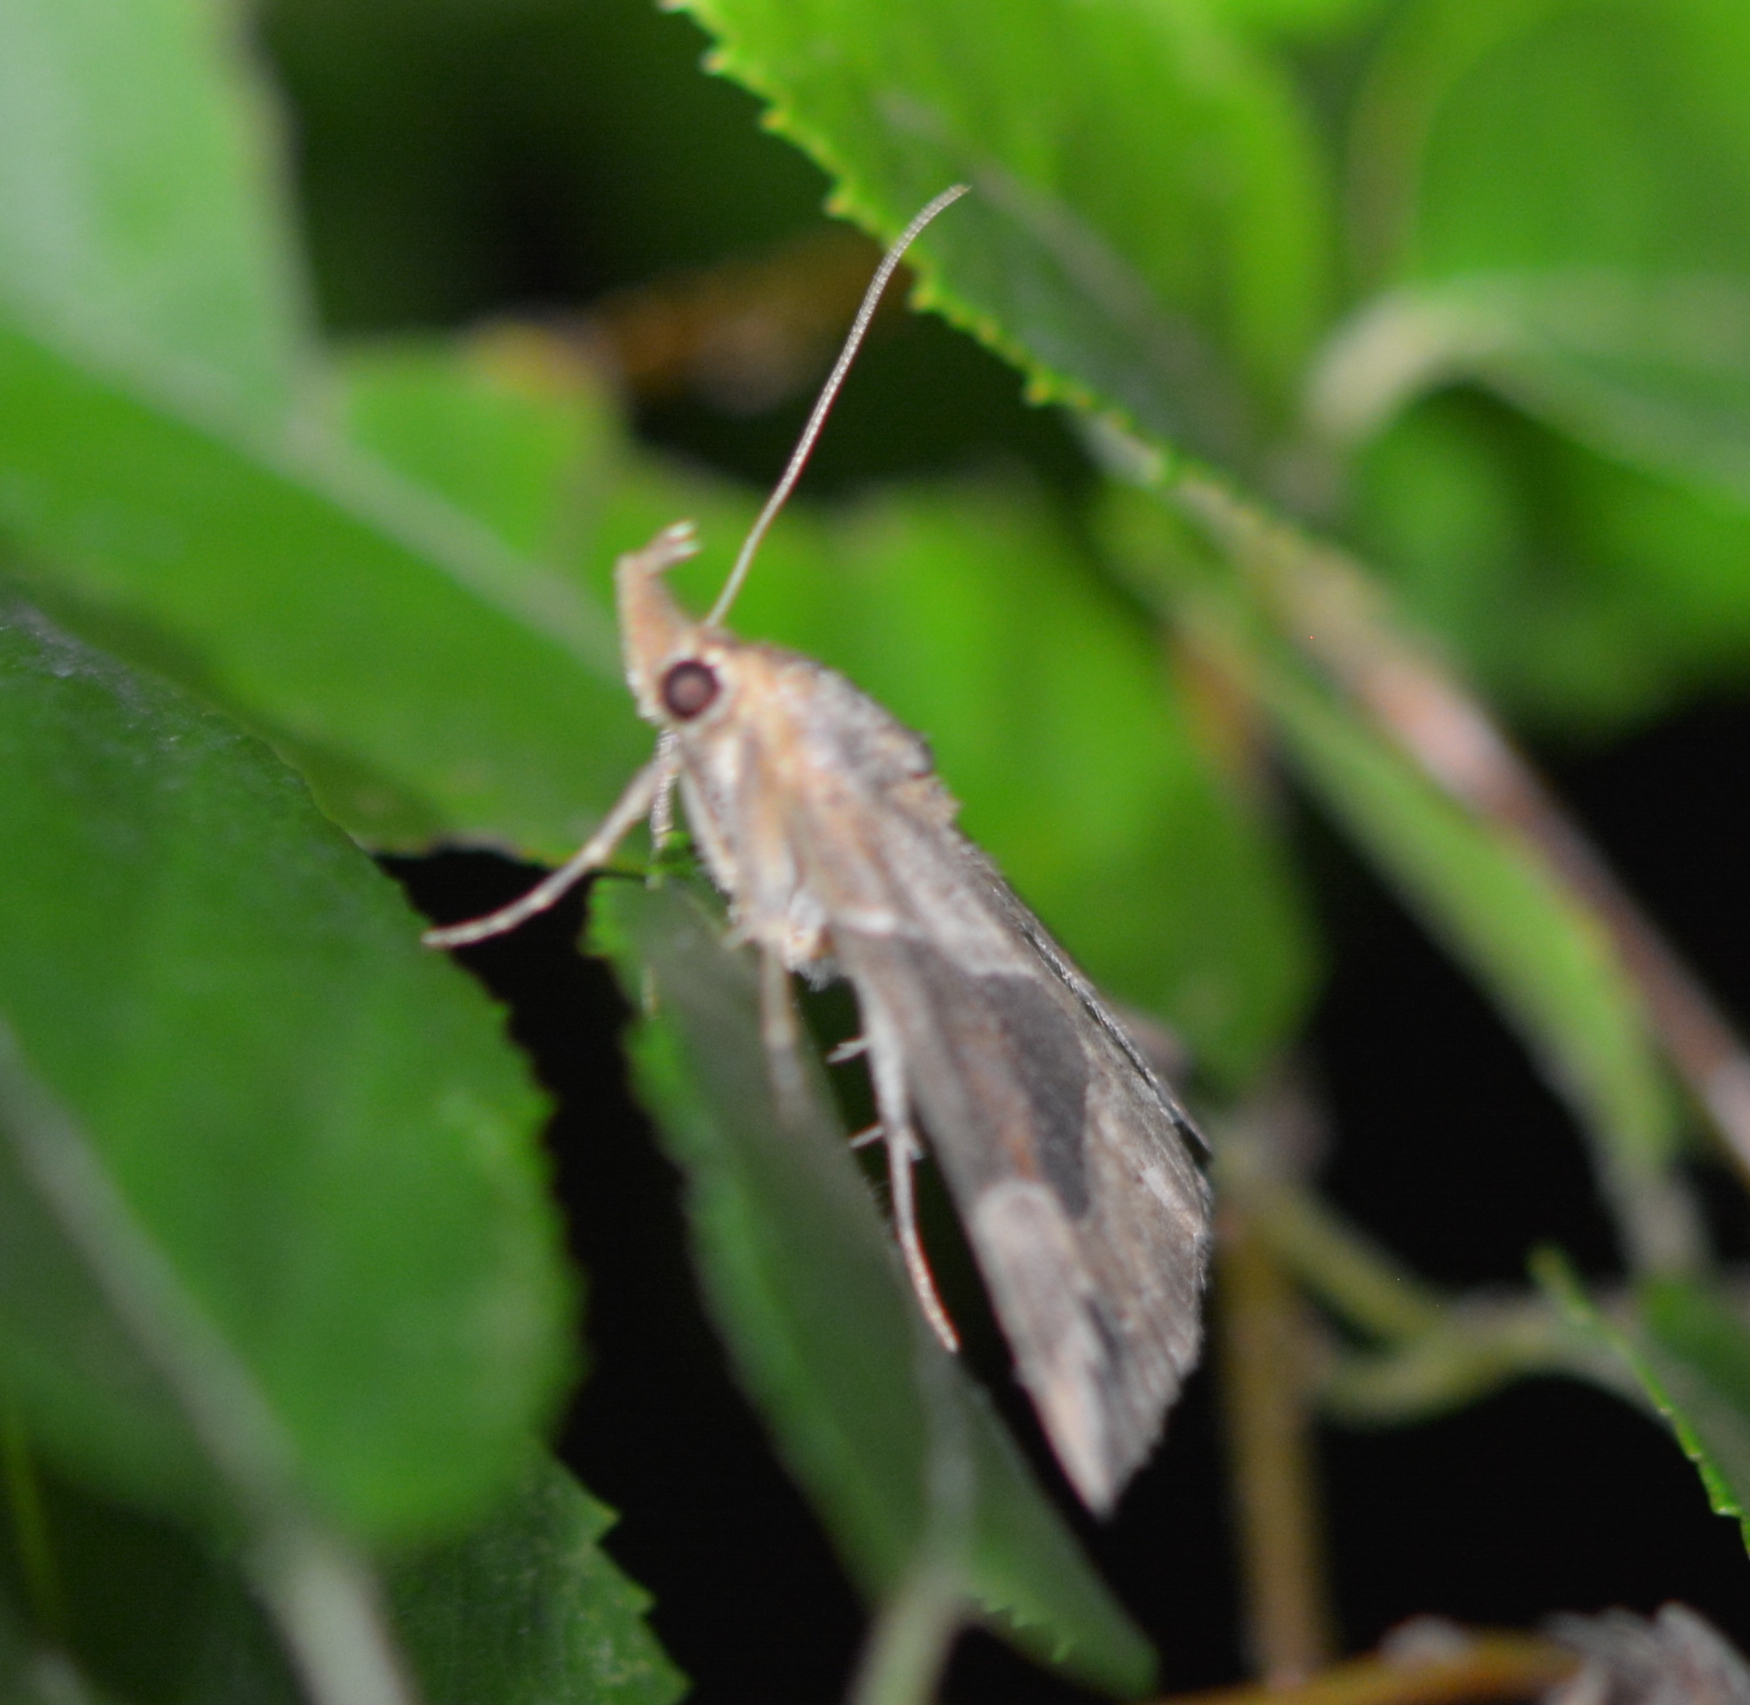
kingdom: Animalia
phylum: Arthropoda
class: Insecta
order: Lepidoptera
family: Erebidae
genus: Hypena
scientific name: Hypena manalis
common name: Flowing-line bomolocha moth
